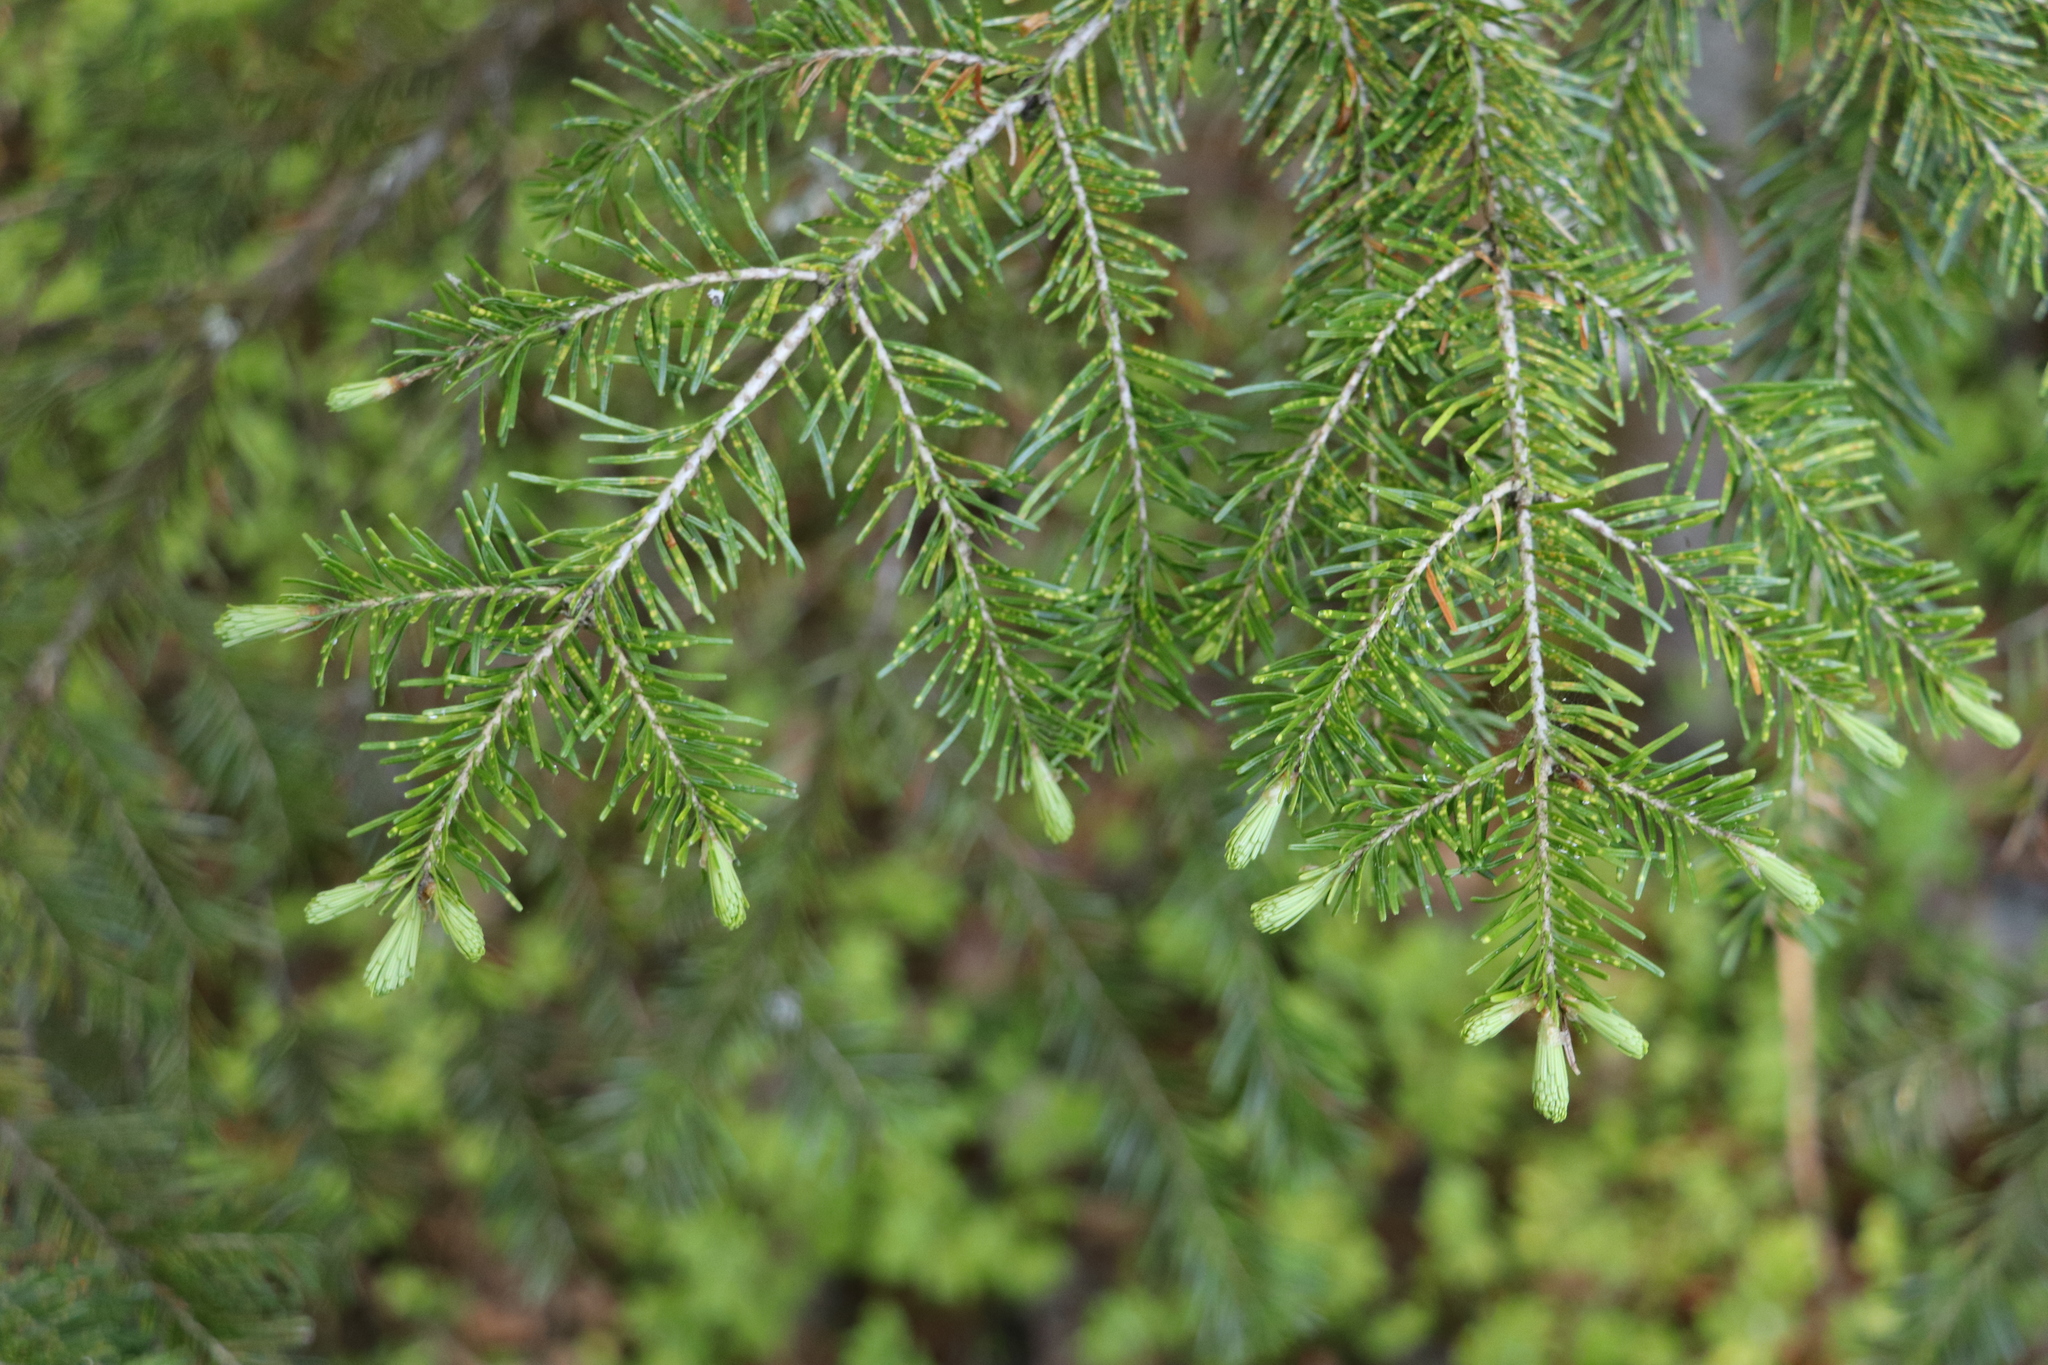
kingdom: Plantae
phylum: Tracheophyta
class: Pinopsida
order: Pinales
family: Pinaceae
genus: Abies
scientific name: Abies sibirica
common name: Siberian fir
